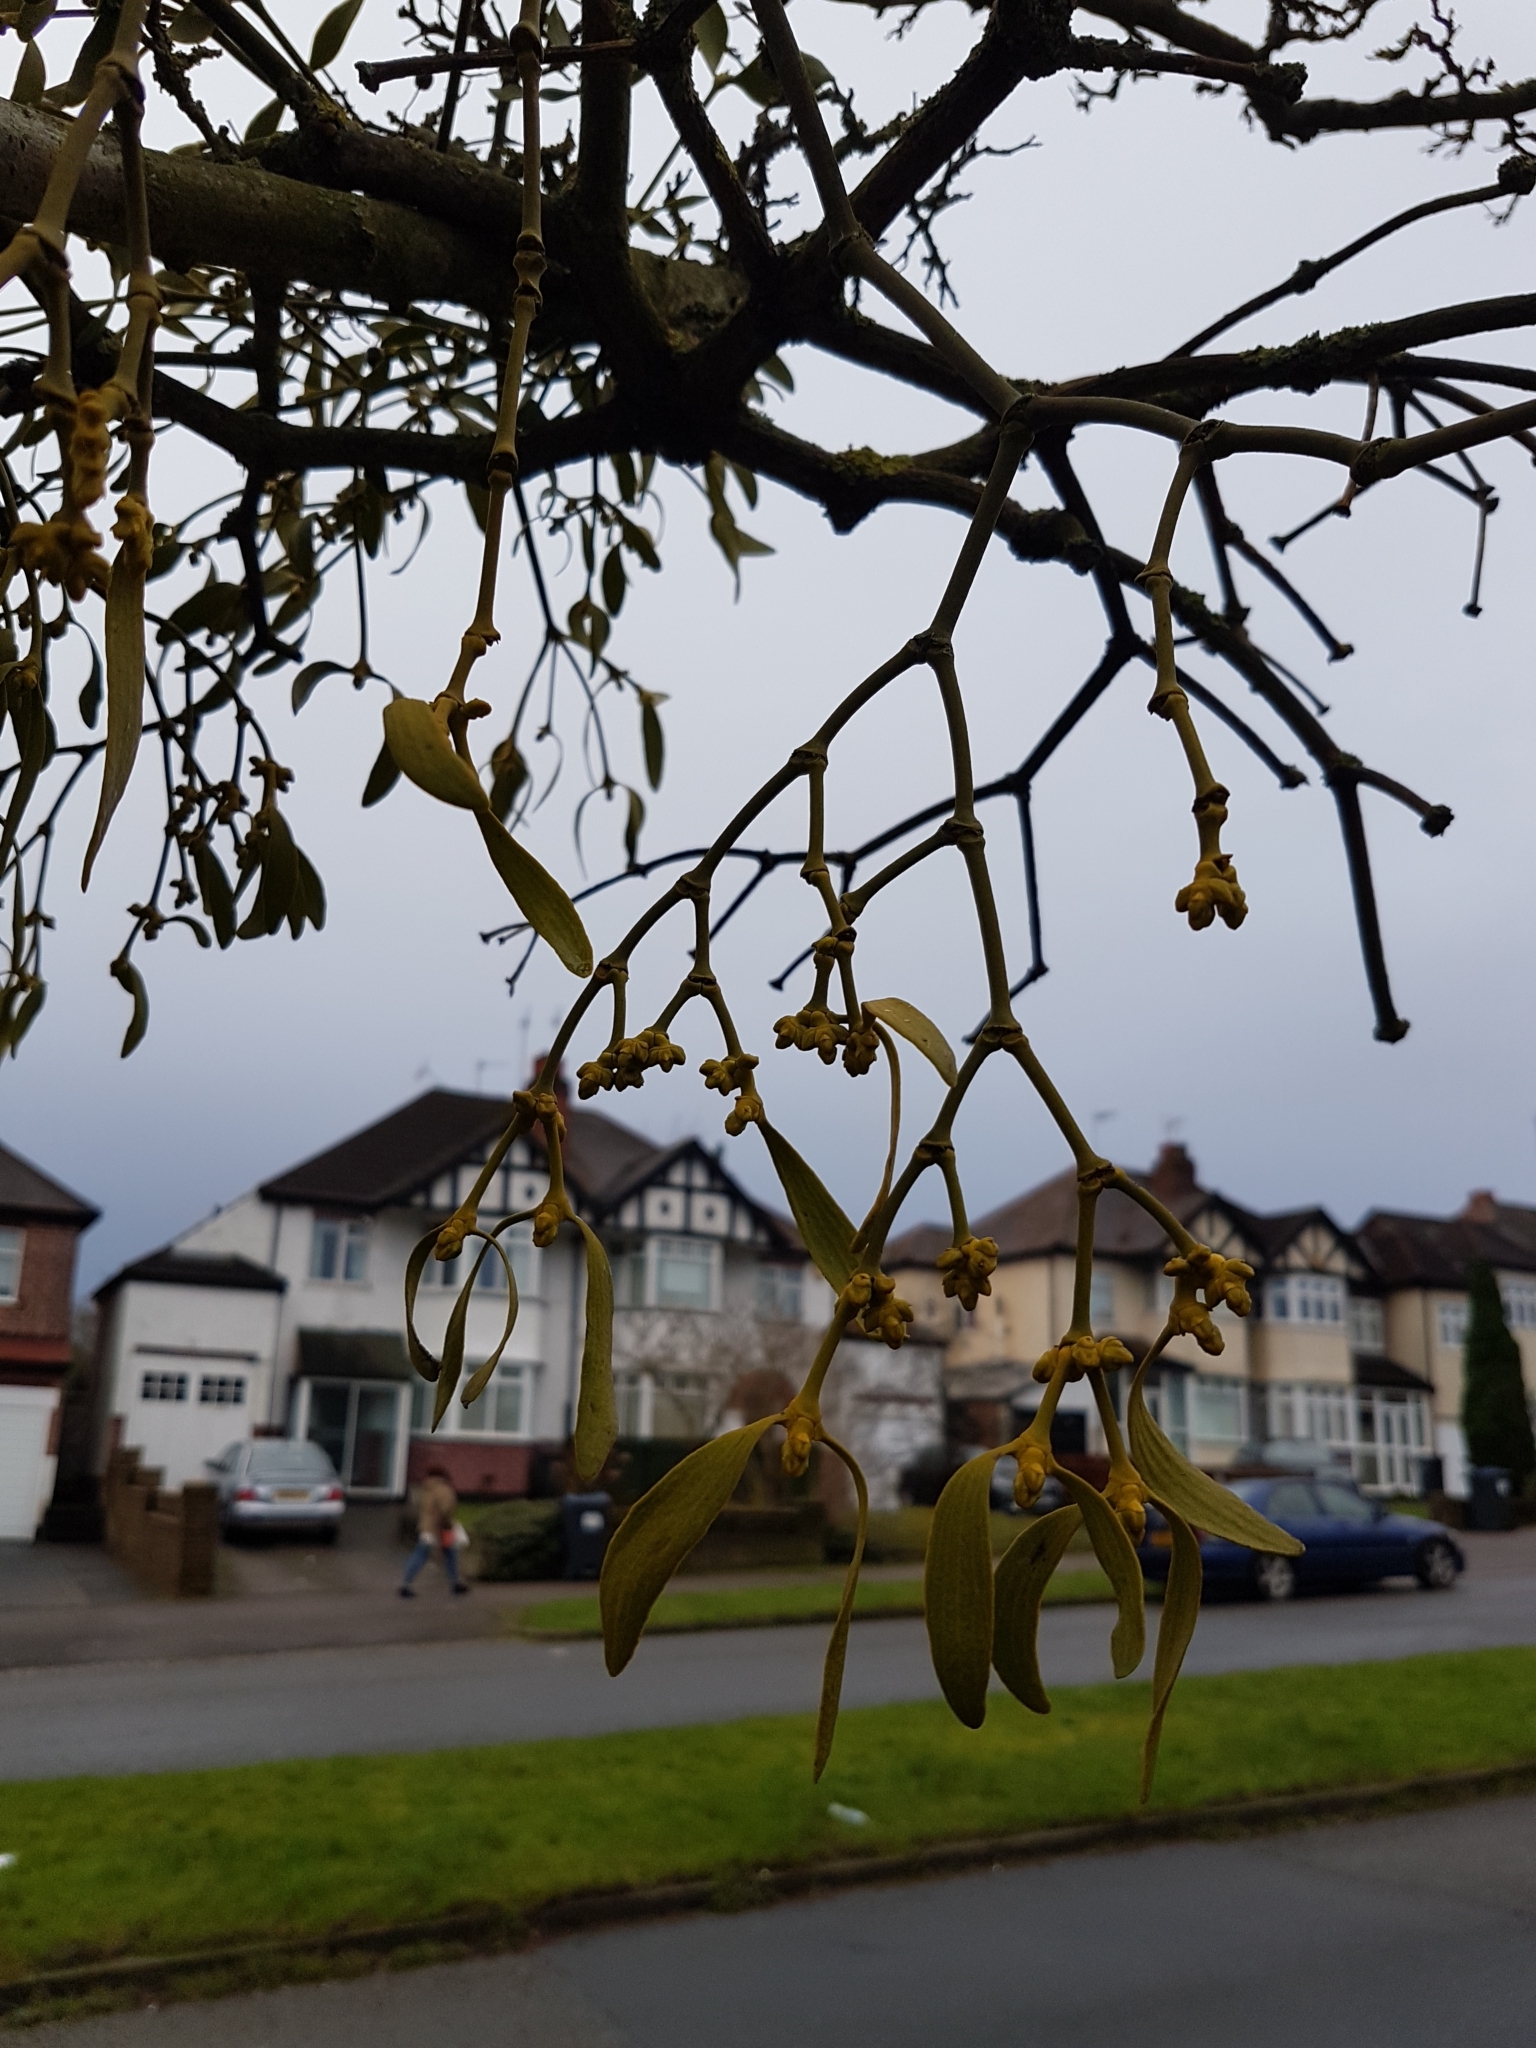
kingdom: Plantae
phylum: Tracheophyta
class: Magnoliopsida
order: Santalales
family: Viscaceae
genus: Viscum
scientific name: Viscum album
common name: Mistletoe
